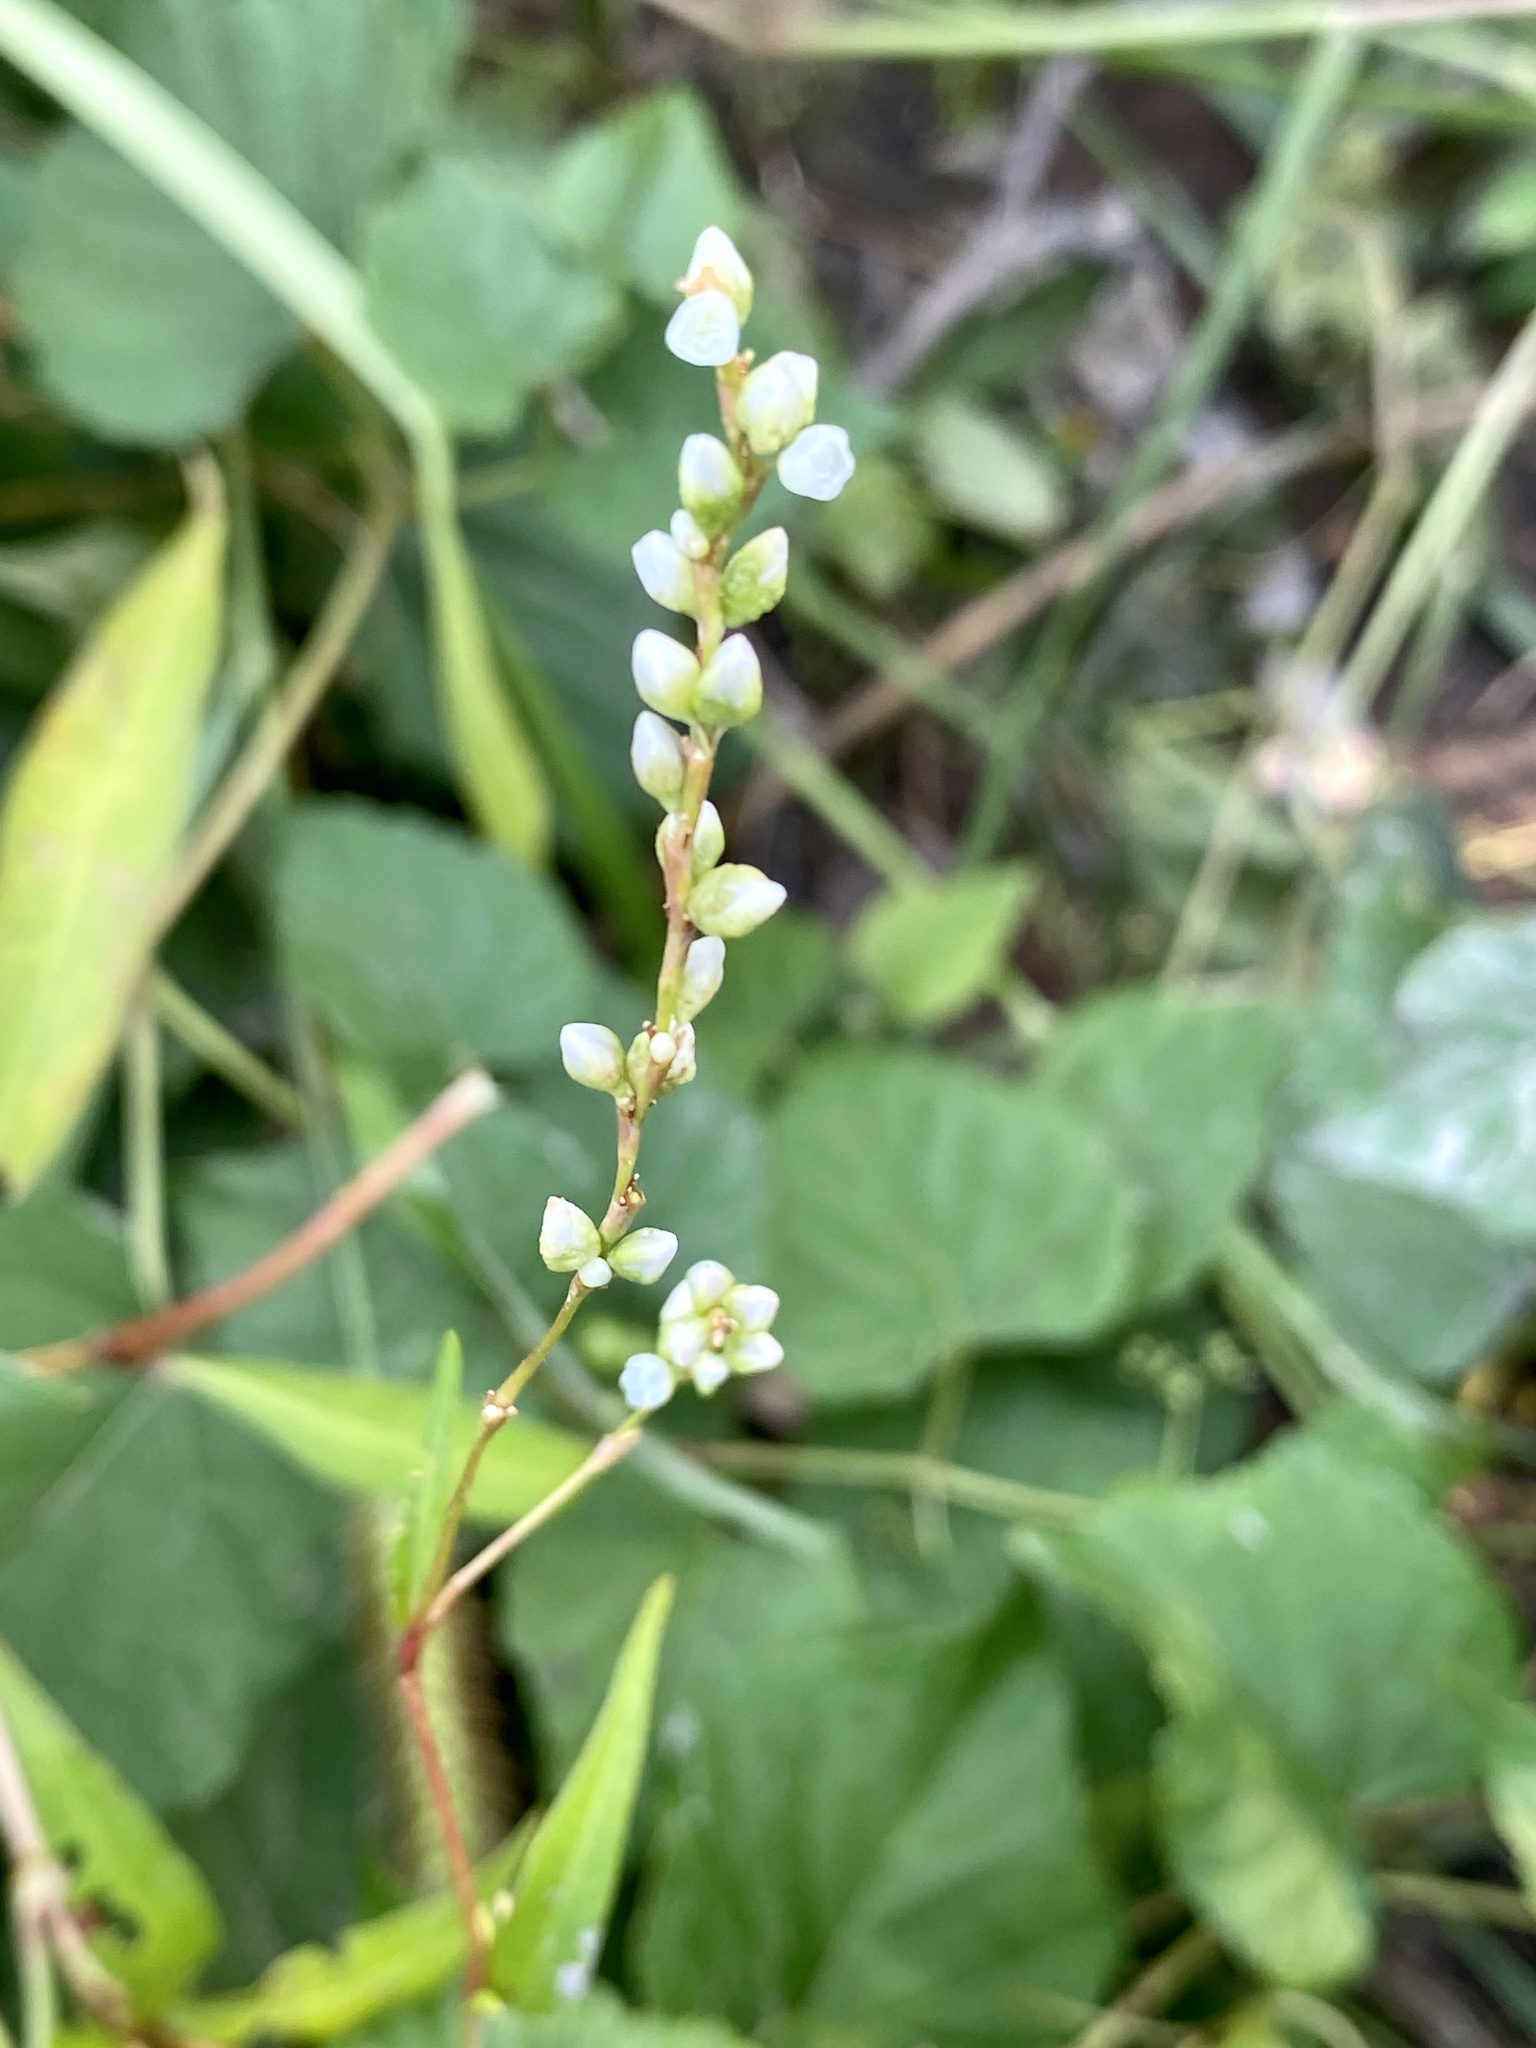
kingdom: Plantae
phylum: Tracheophyta
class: Magnoliopsida
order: Caryophyllales
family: Polygonaceae
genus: Persicaria
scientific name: Persicaria punctata
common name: Dotted smartweed
